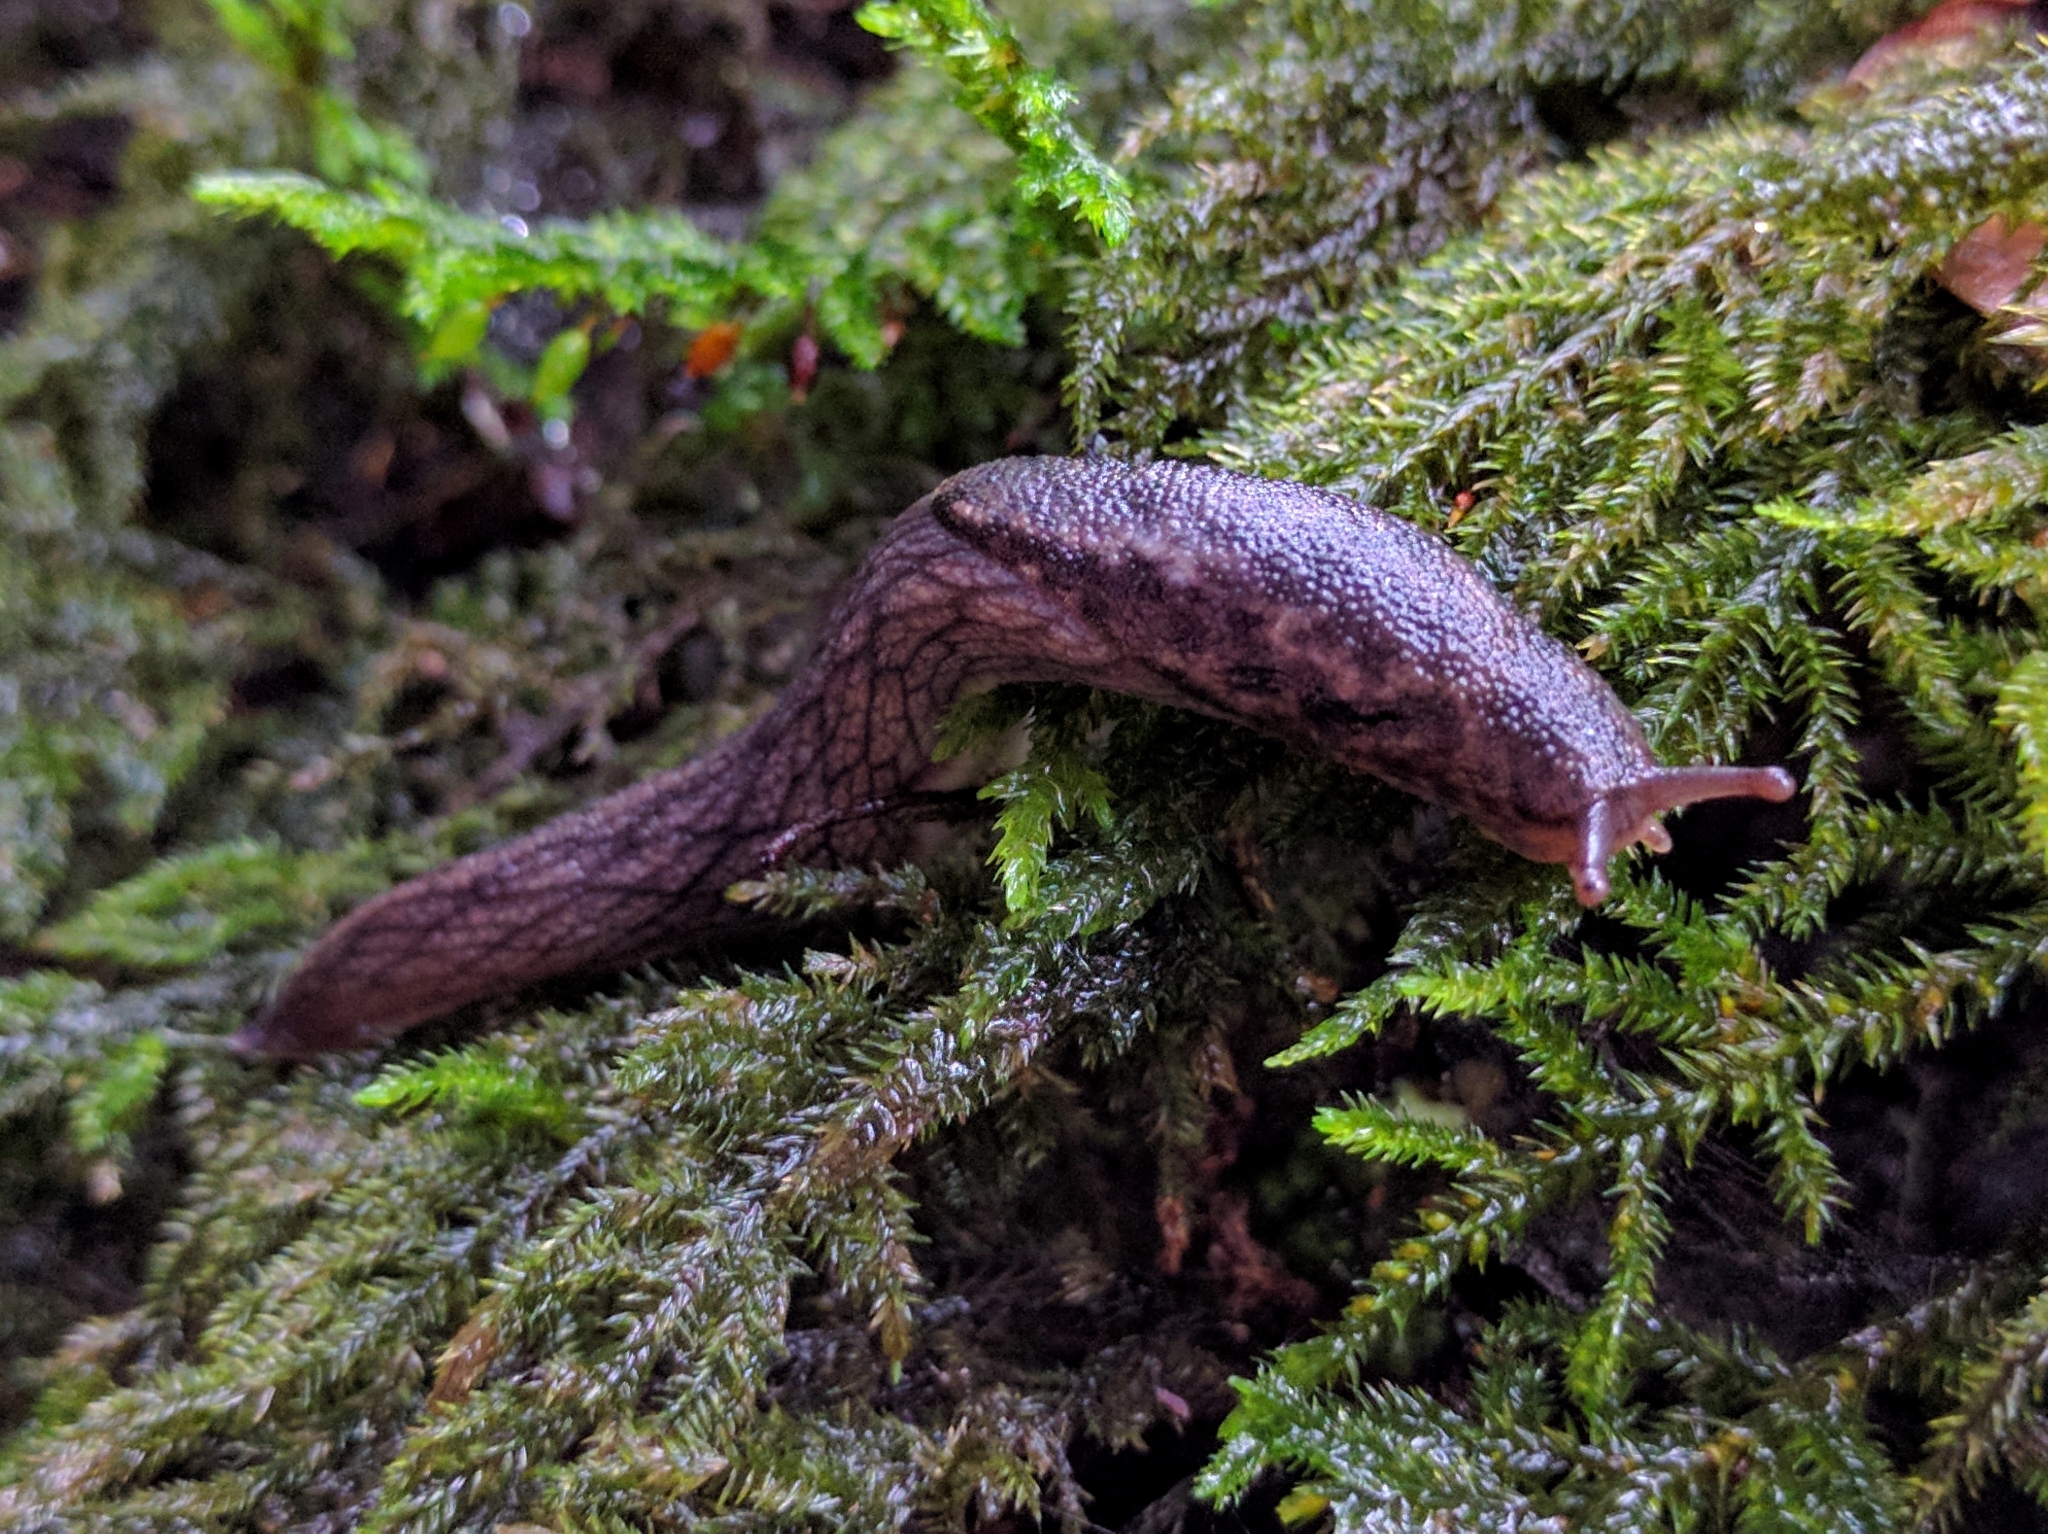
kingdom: Animalia
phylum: Mollusca
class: Gastropoda
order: Stylommatophora
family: Ariolimacidae
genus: Prophysaon
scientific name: Prophysaon andersonii
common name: Reticulate taildropper
